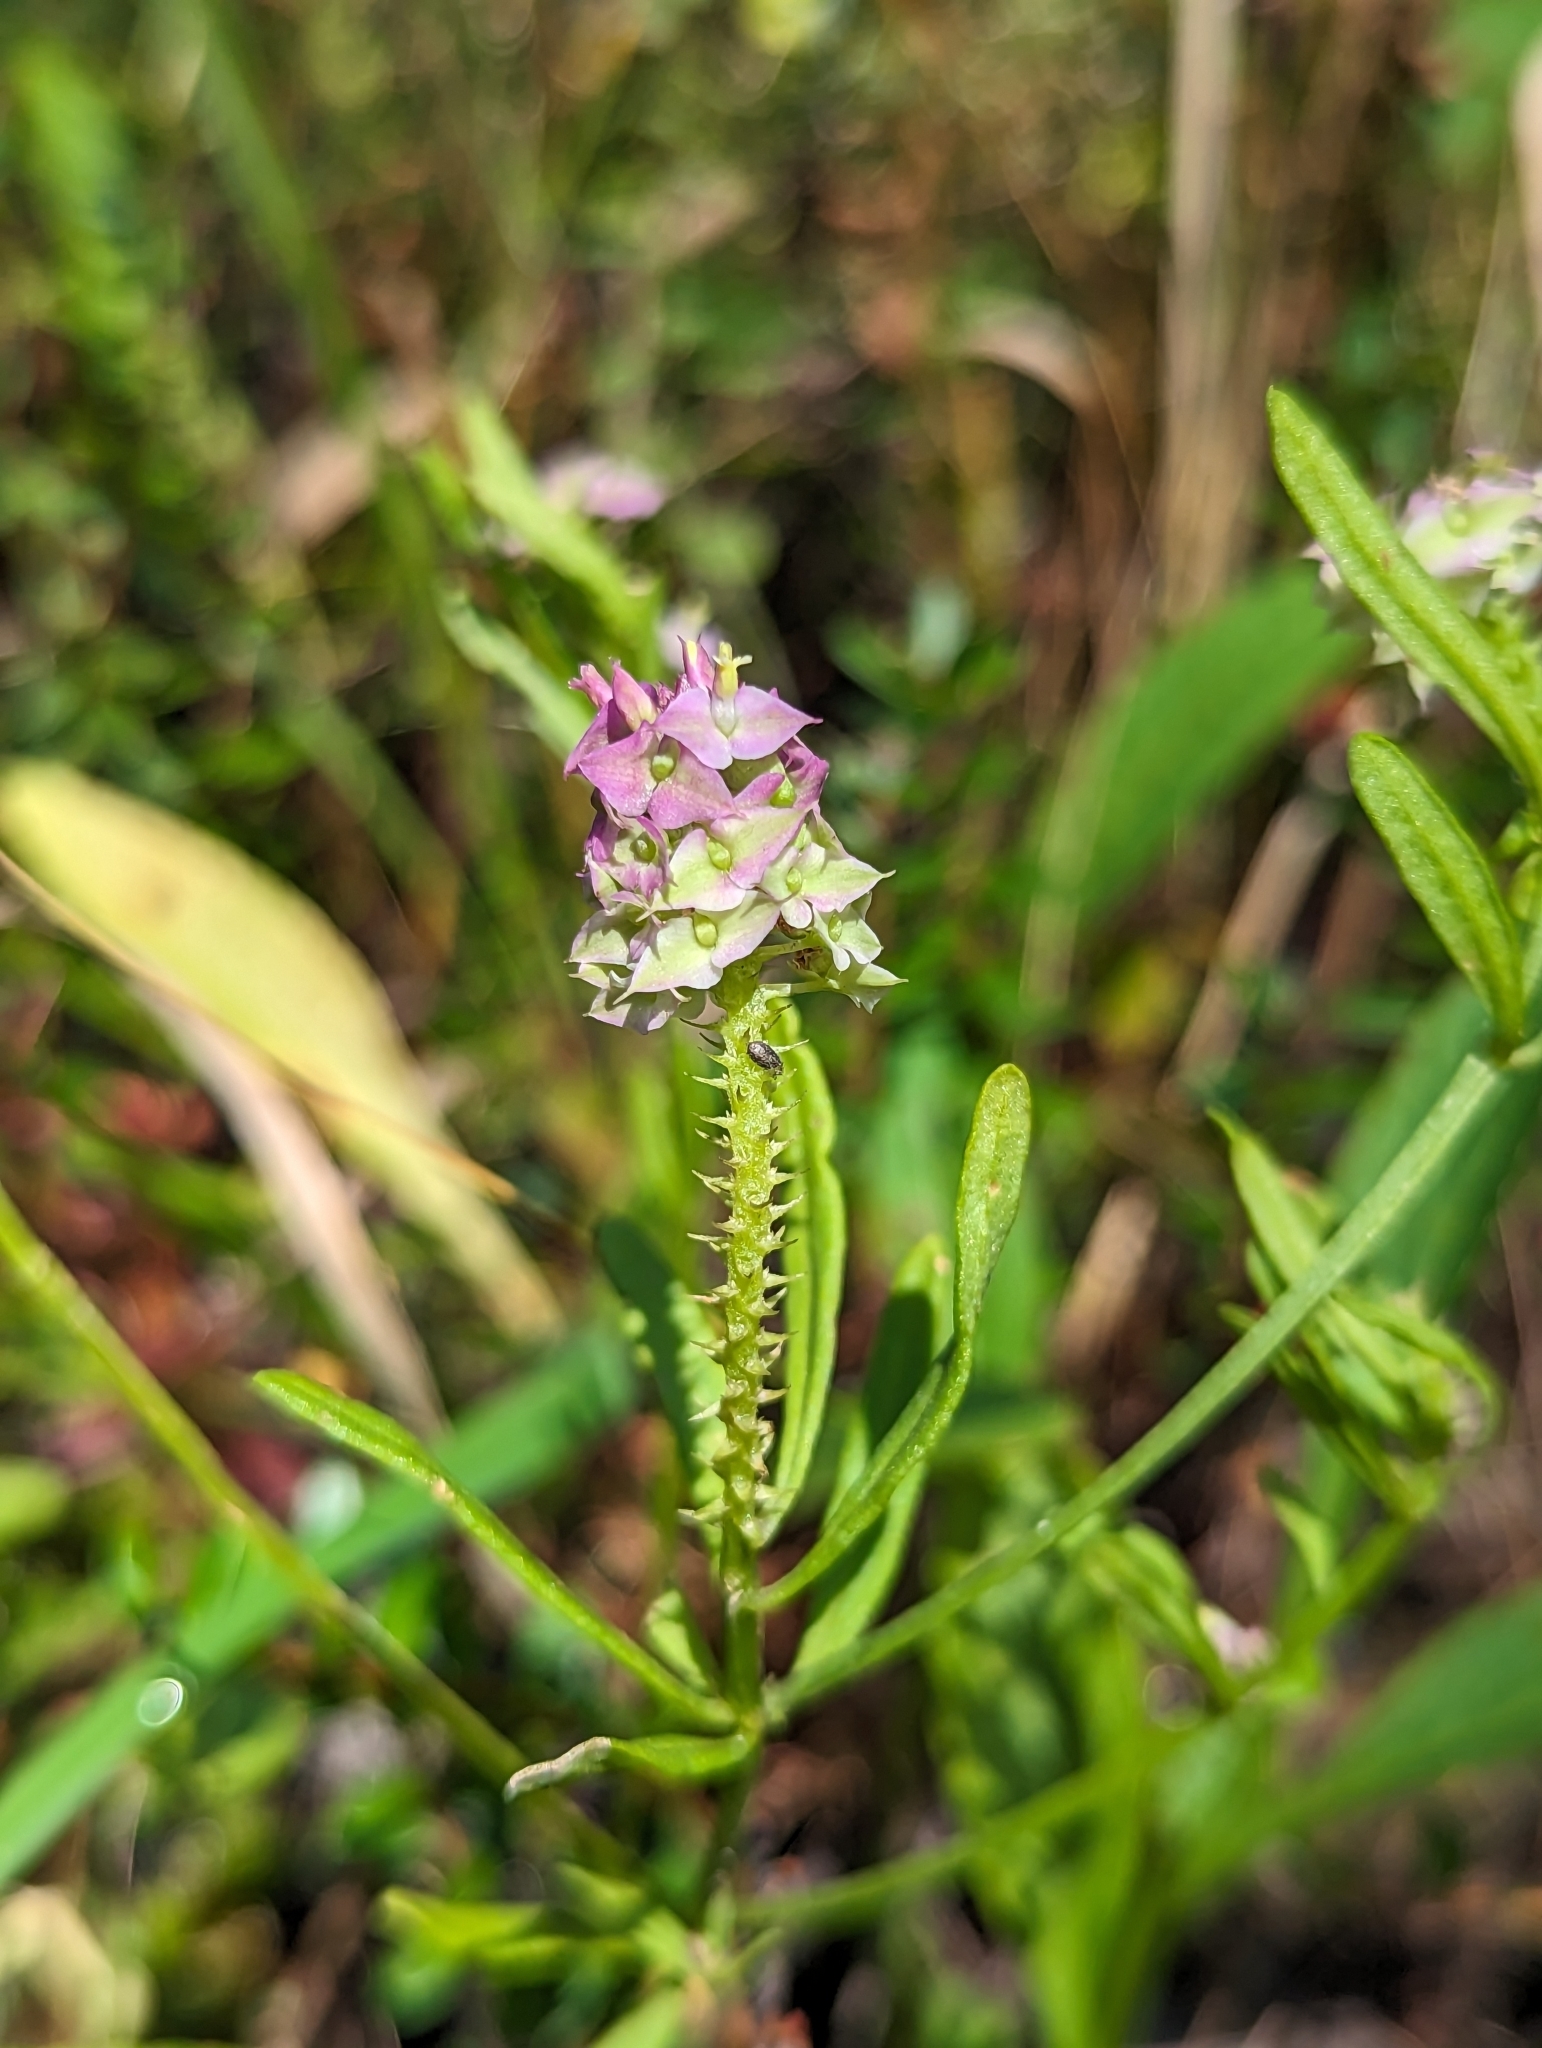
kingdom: Plantae
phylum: Tracheophyta
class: Magnoliopsida
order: Fabales
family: Polygalaceae
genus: Polygala
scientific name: Polygala cruciata
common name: Drumheads
